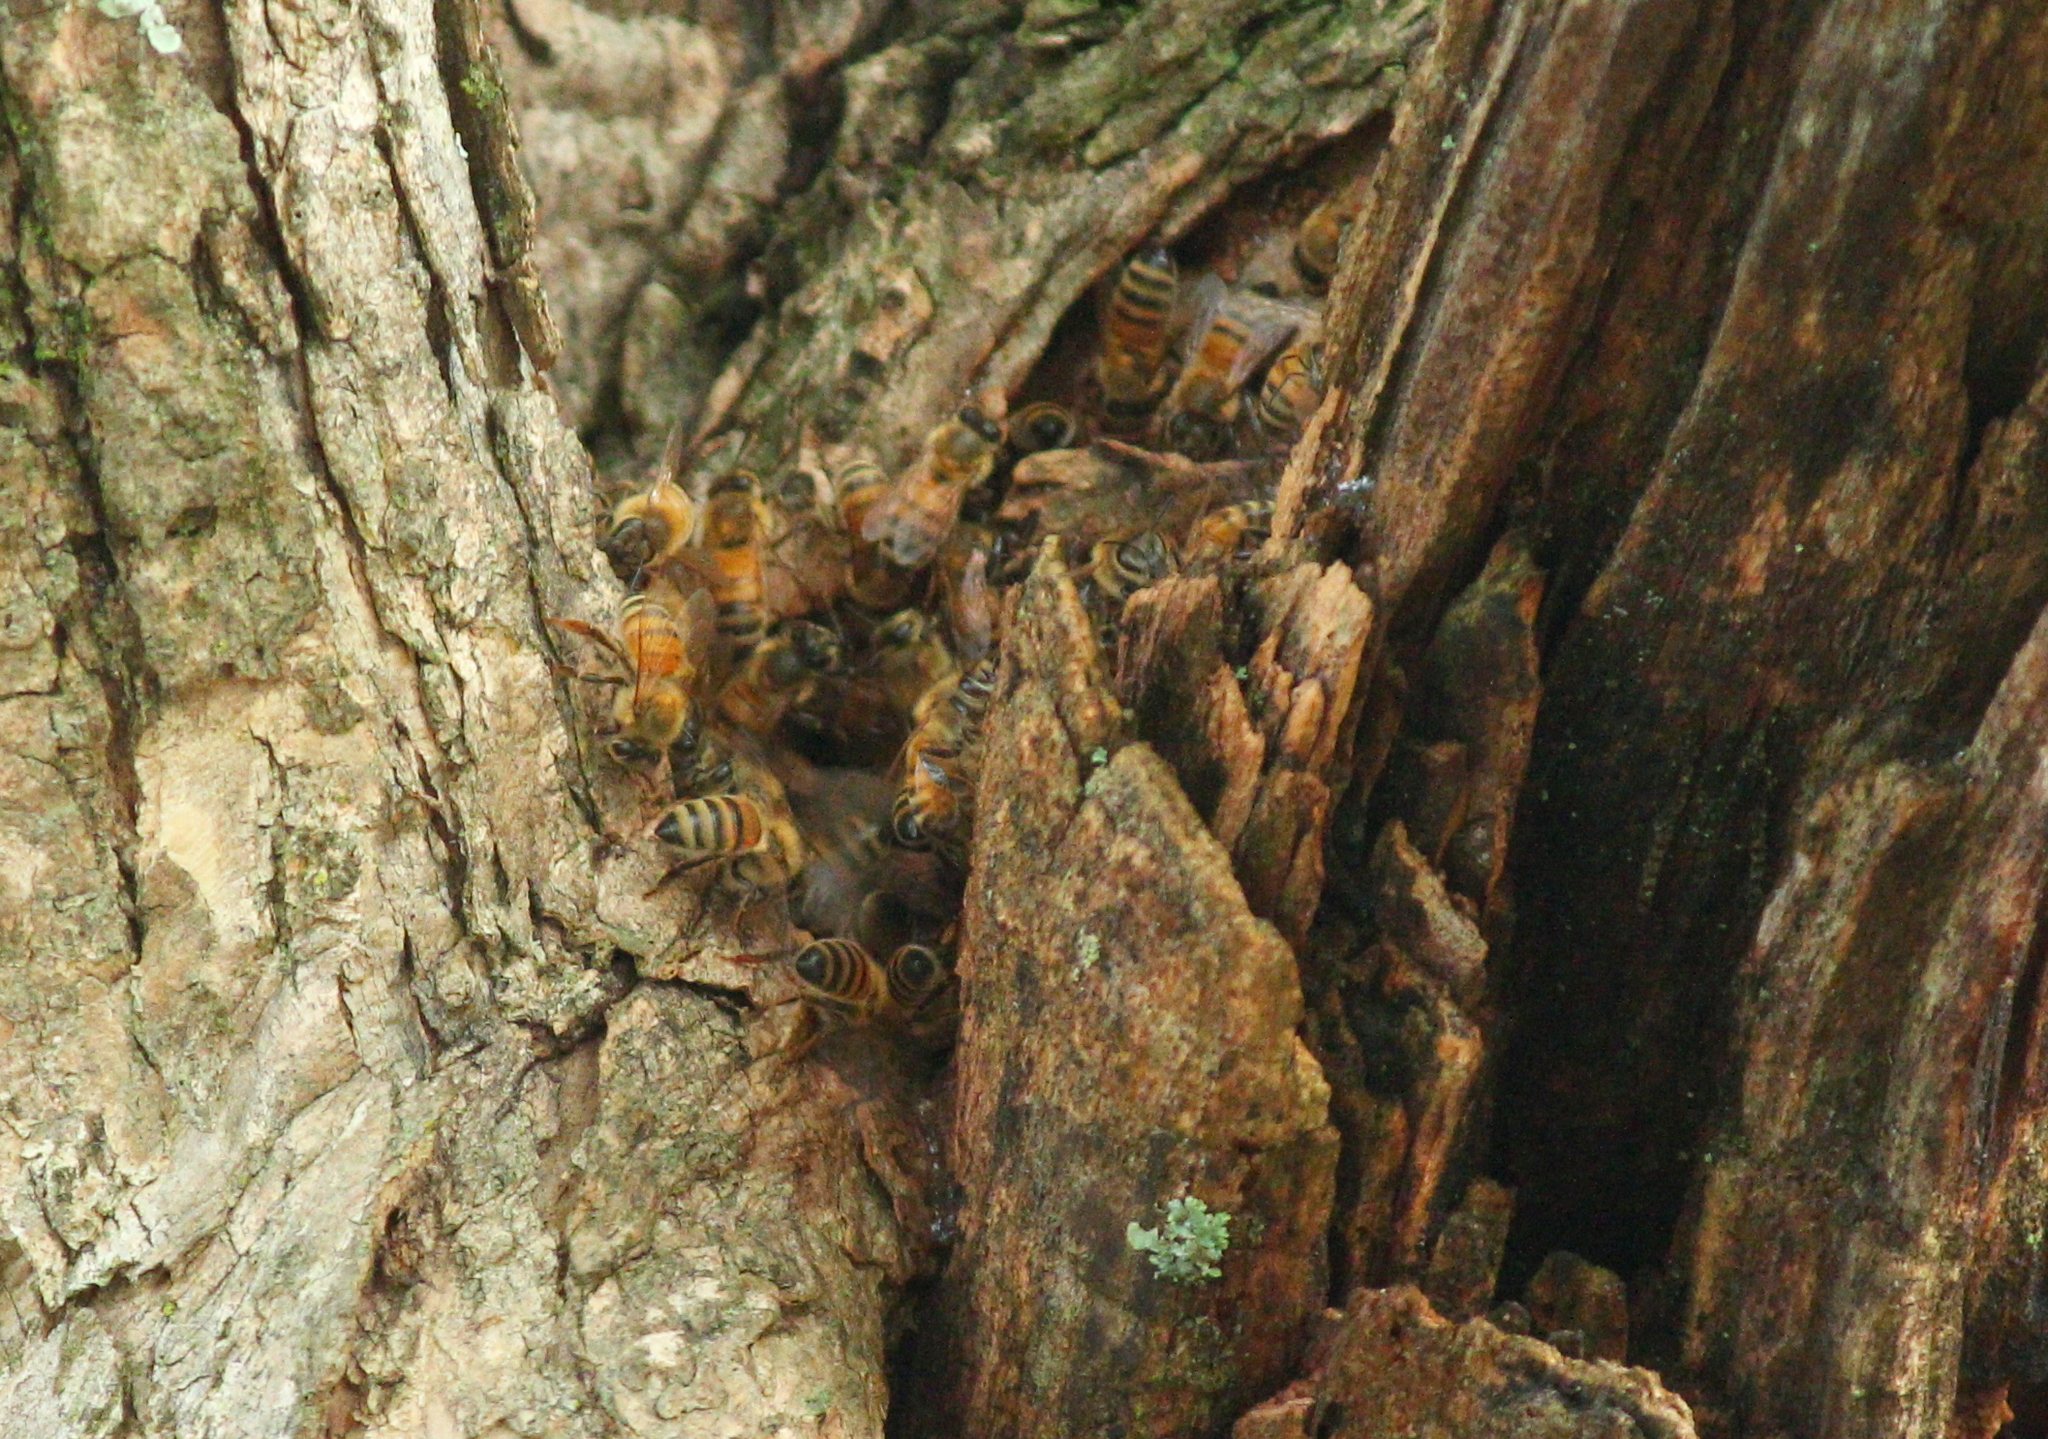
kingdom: Animalia
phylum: Arthropoda
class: Insecta
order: Hymenoptera
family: Apidae
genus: Apis
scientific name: Apis mellifera
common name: Honey bee
